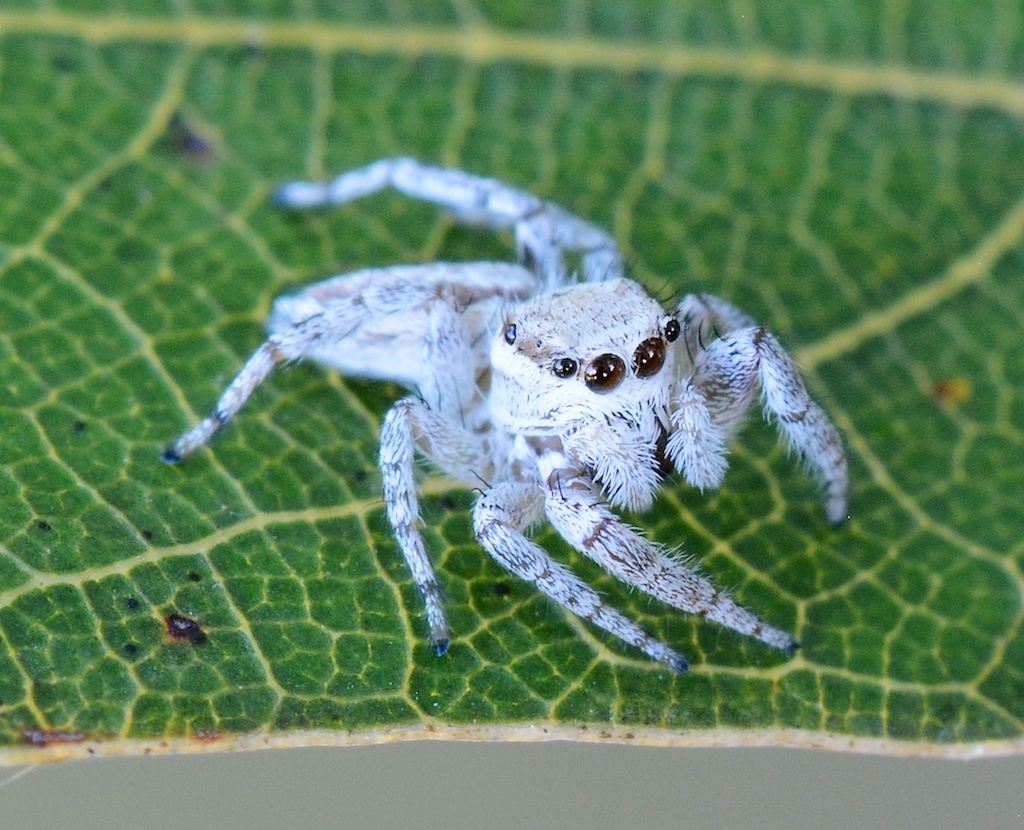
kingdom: Animalia
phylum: Arthropoda
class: Arachnida
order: Araneae
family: Salticidae
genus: Pelegrina
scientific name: Pelegrina tillandsiae
